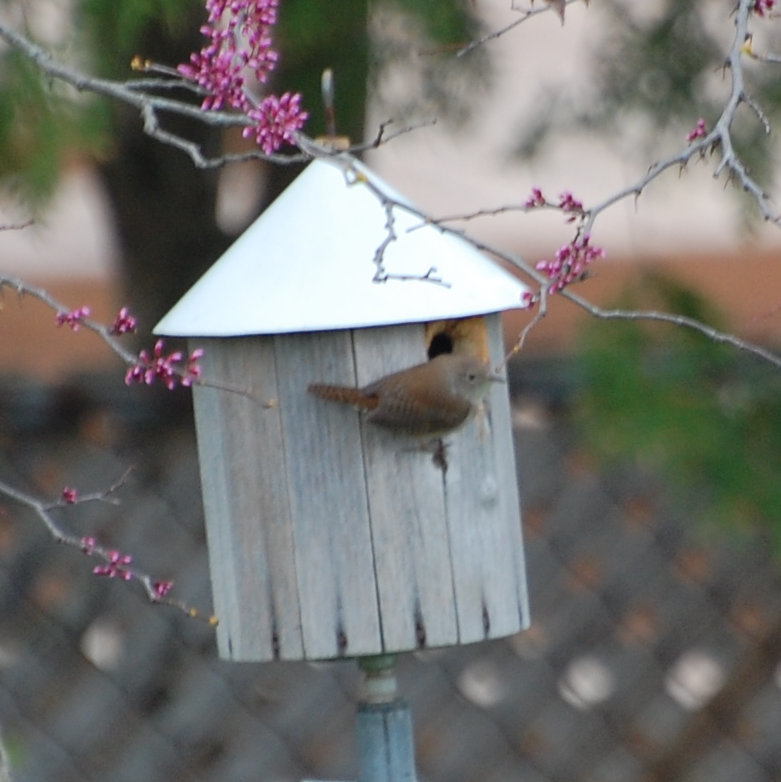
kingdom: Animalia
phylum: Chordata
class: Aves
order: Passeriformes
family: Troglodytidae
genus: Troglodytes
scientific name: Troglodytes aedon
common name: House wren
